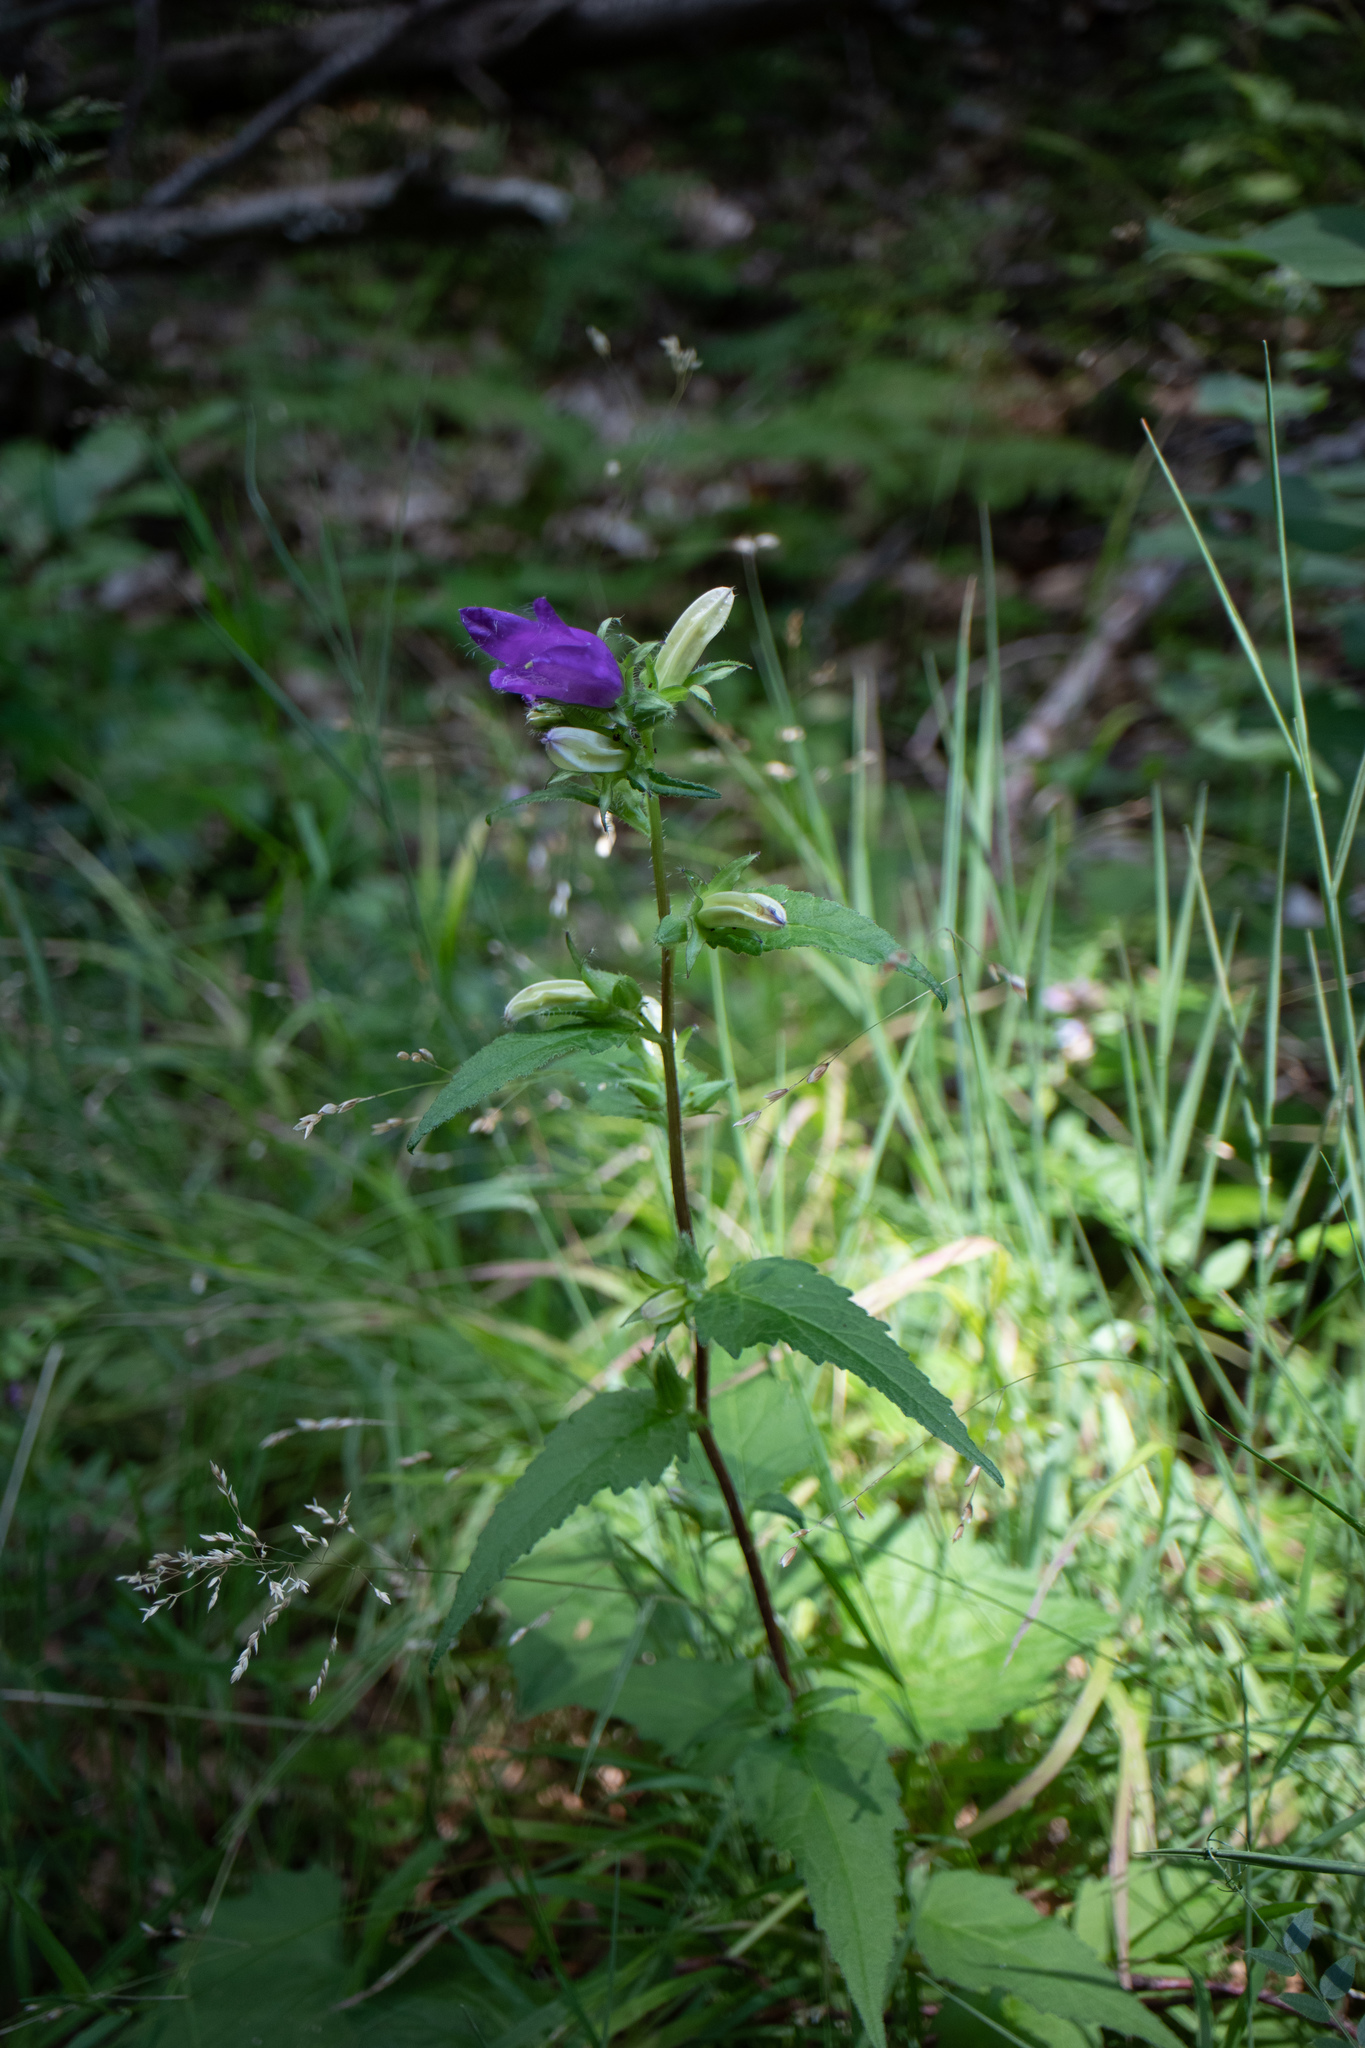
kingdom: Plantae
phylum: Tracheophyta
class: Magnoliopsida
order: Asterales
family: Campanulaceae
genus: Campanula
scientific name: Campanula trachelium
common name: Nettle-leaved bellflower
